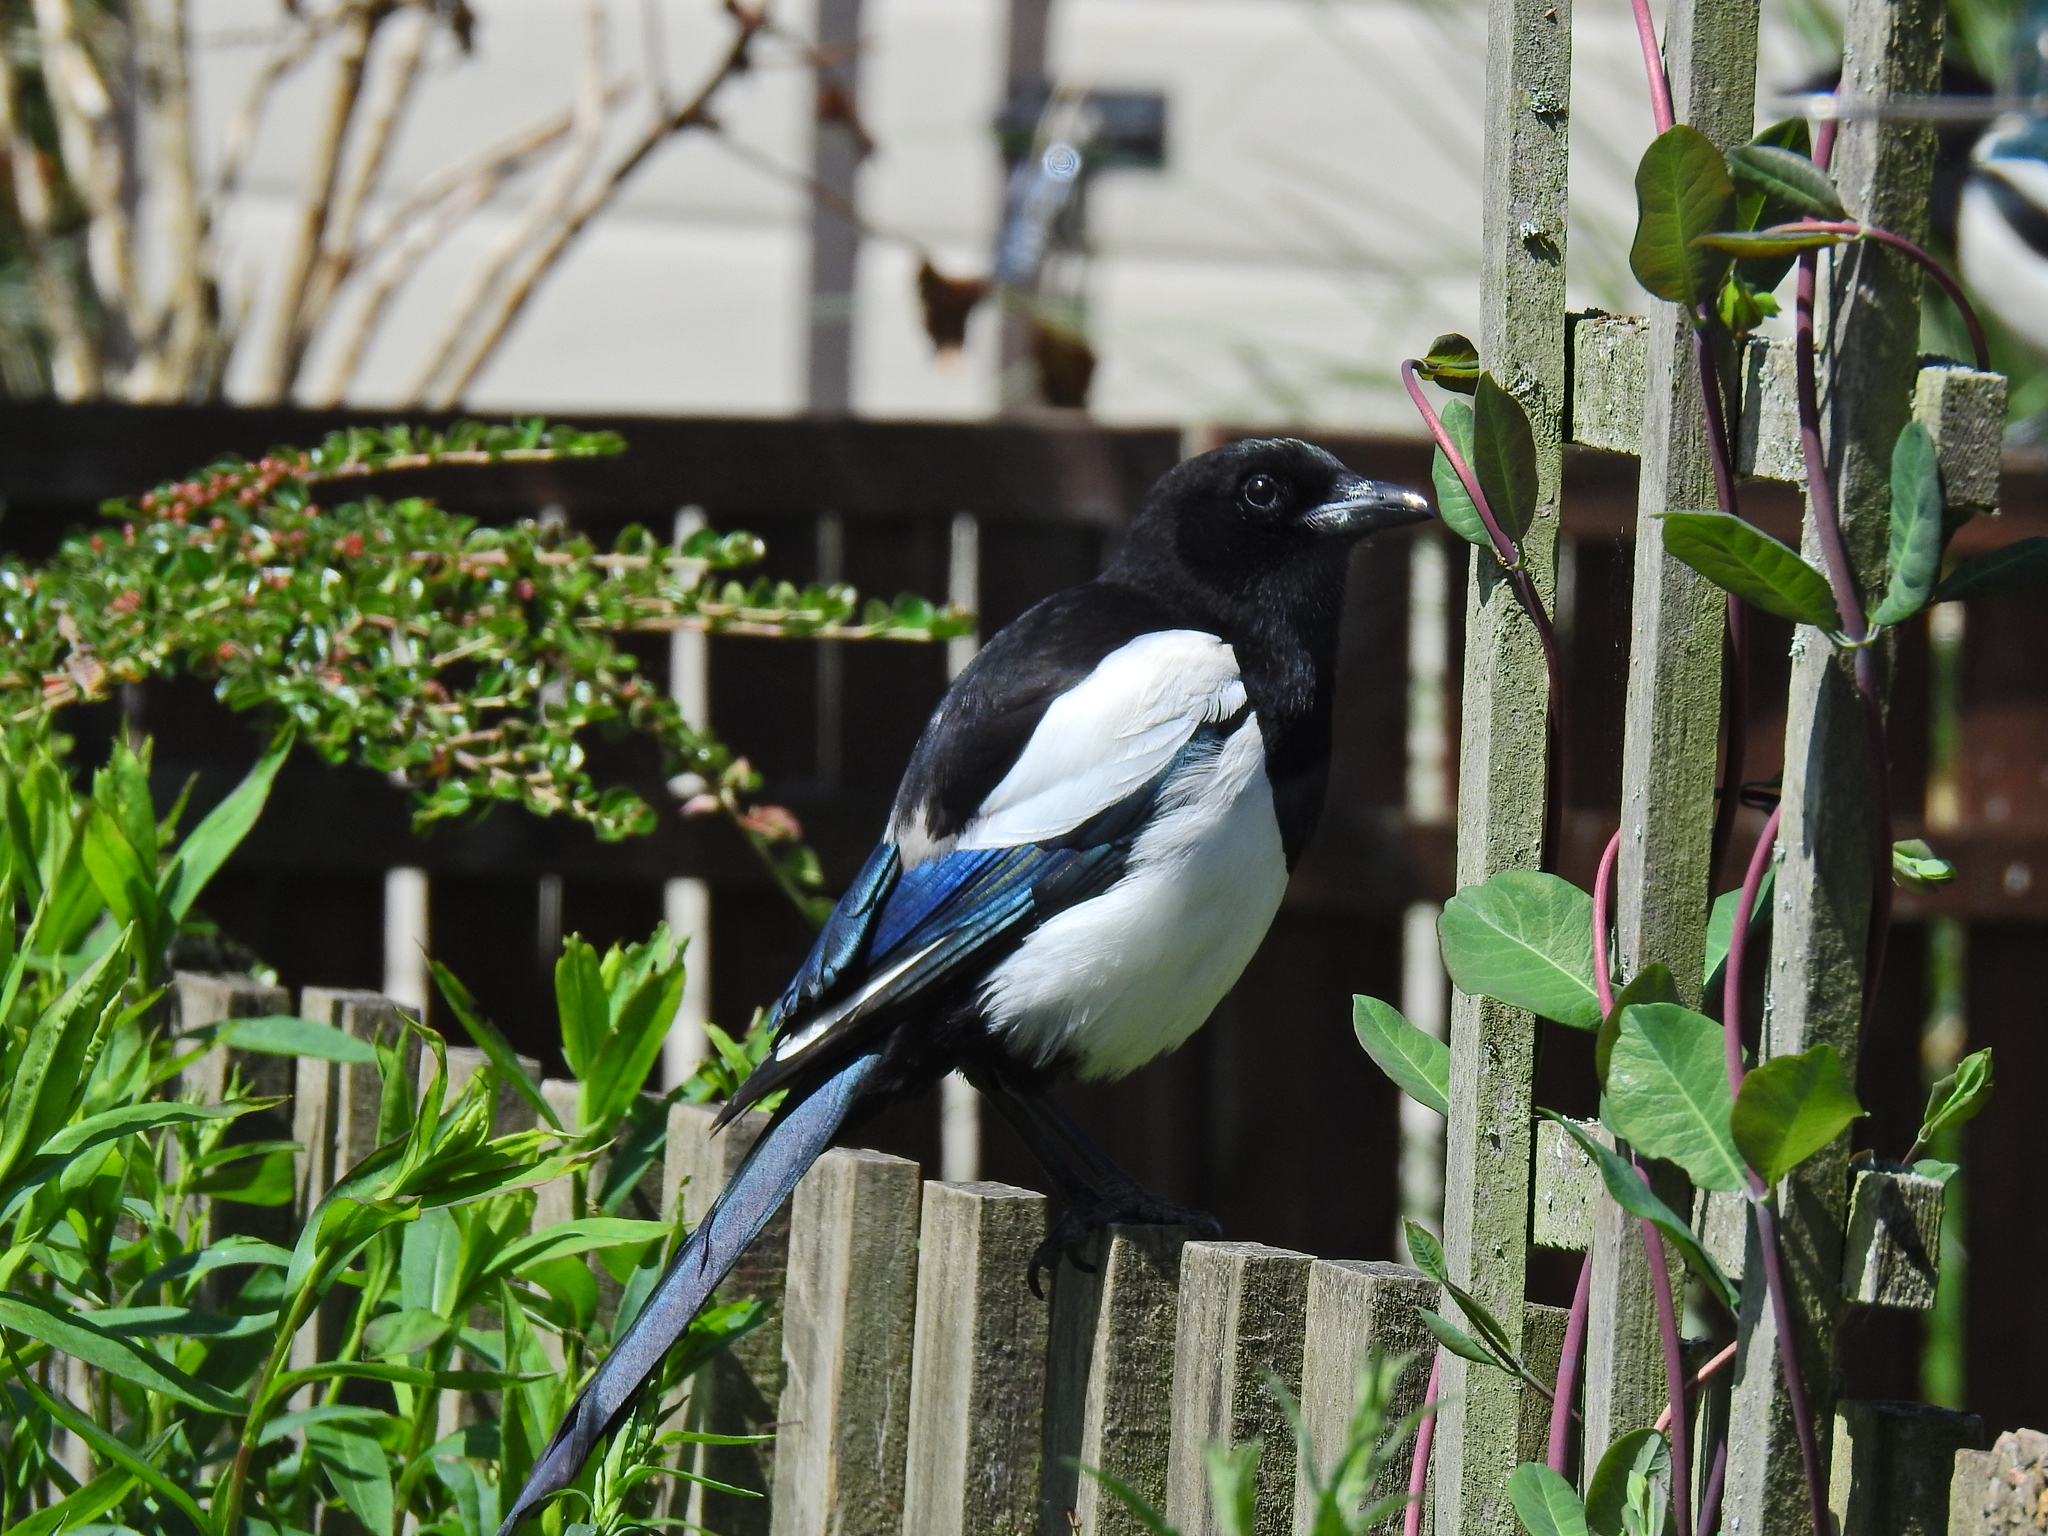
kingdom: Animalia
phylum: Chordata
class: Aves
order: Passeriformes
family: Corvidae
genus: Pica
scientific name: Pica pica
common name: Eurasian magpie
